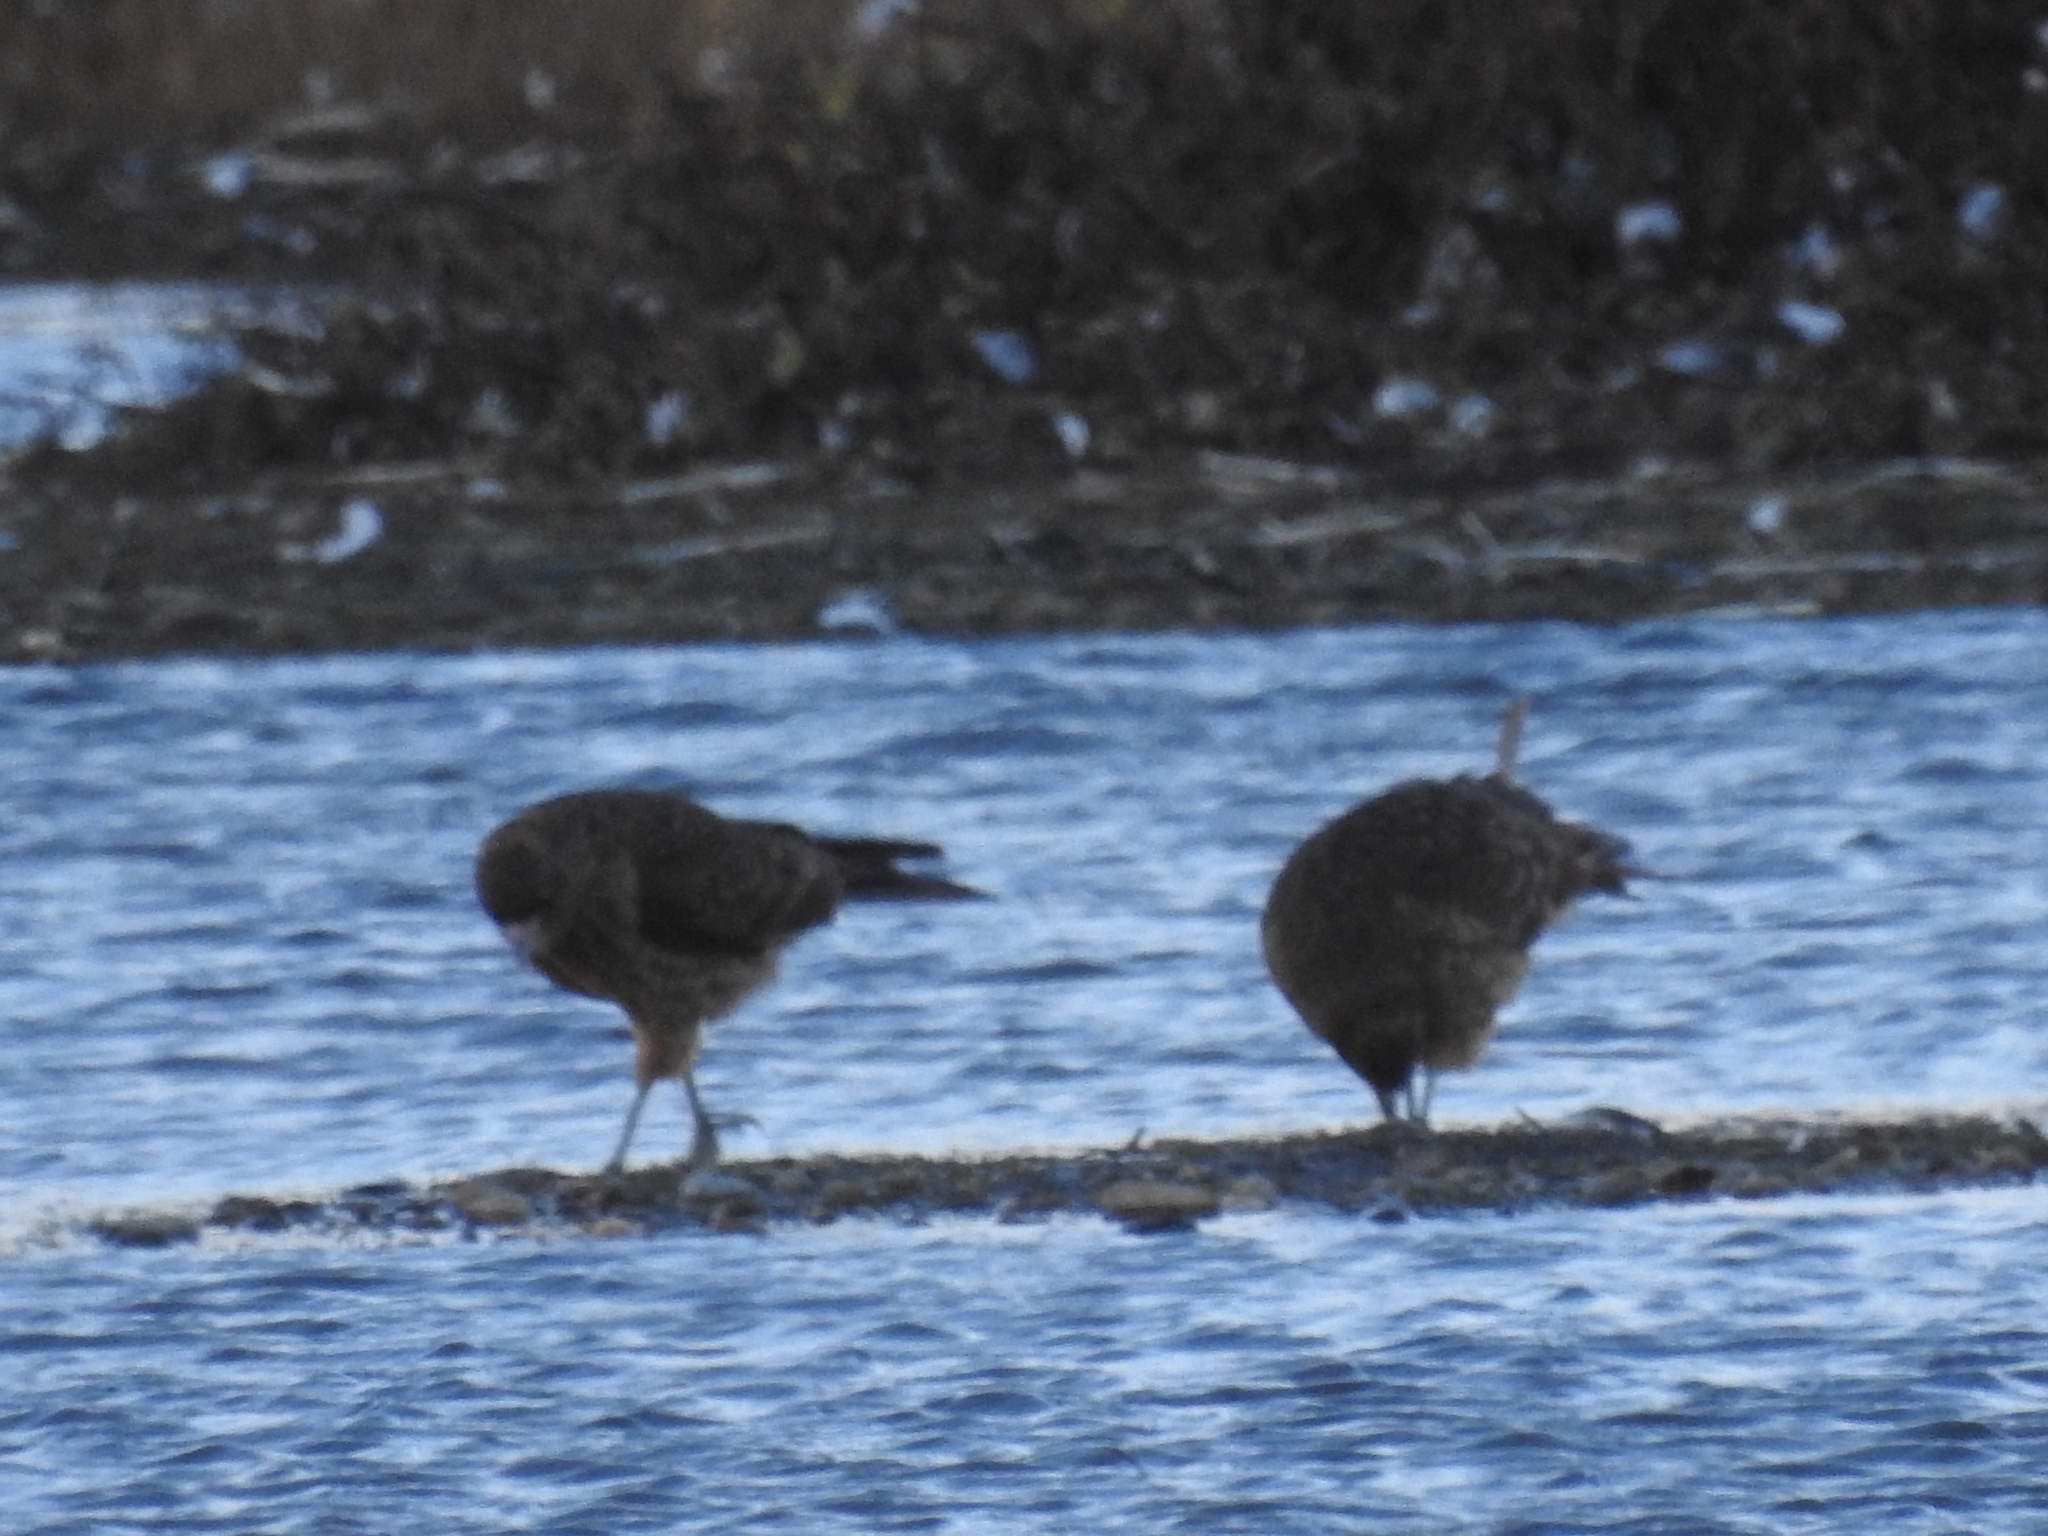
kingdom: Animalia
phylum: Chordata
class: Aves
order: Falconiformes
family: Falconidae
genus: Daptrius
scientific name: Daptrius
